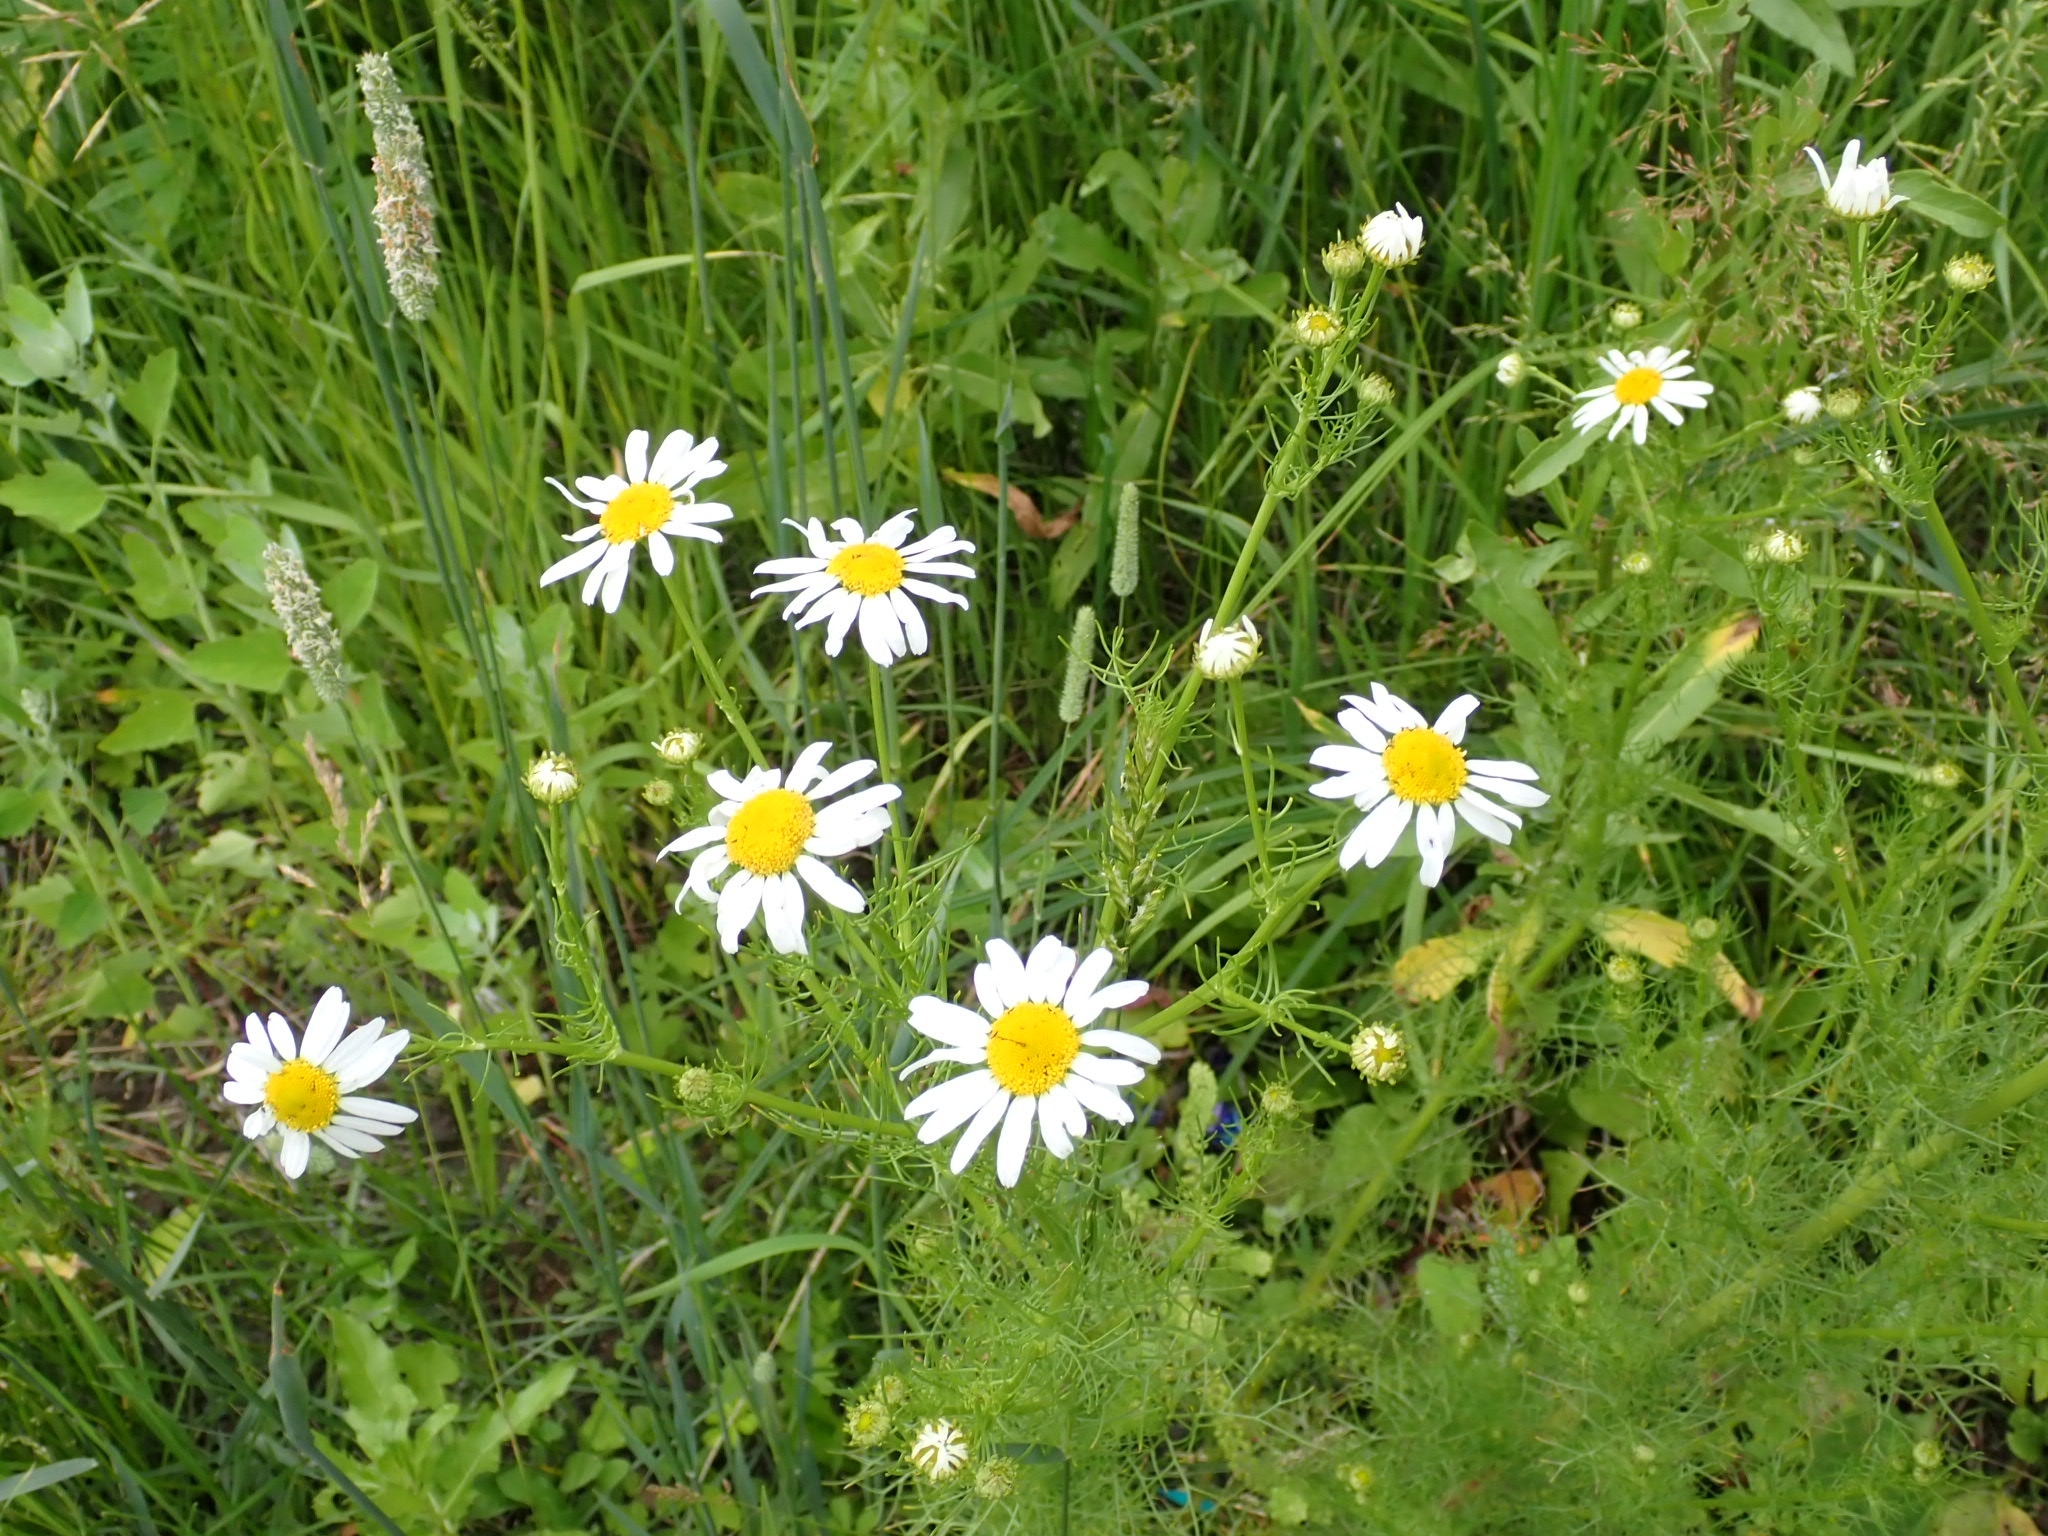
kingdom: Plantae
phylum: Tracheophyta
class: Magnoliopsida
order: Asterales
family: Asteraceae
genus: Tripleurospermum
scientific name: Tripleurospermum inodorum
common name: Scentless mayweed
